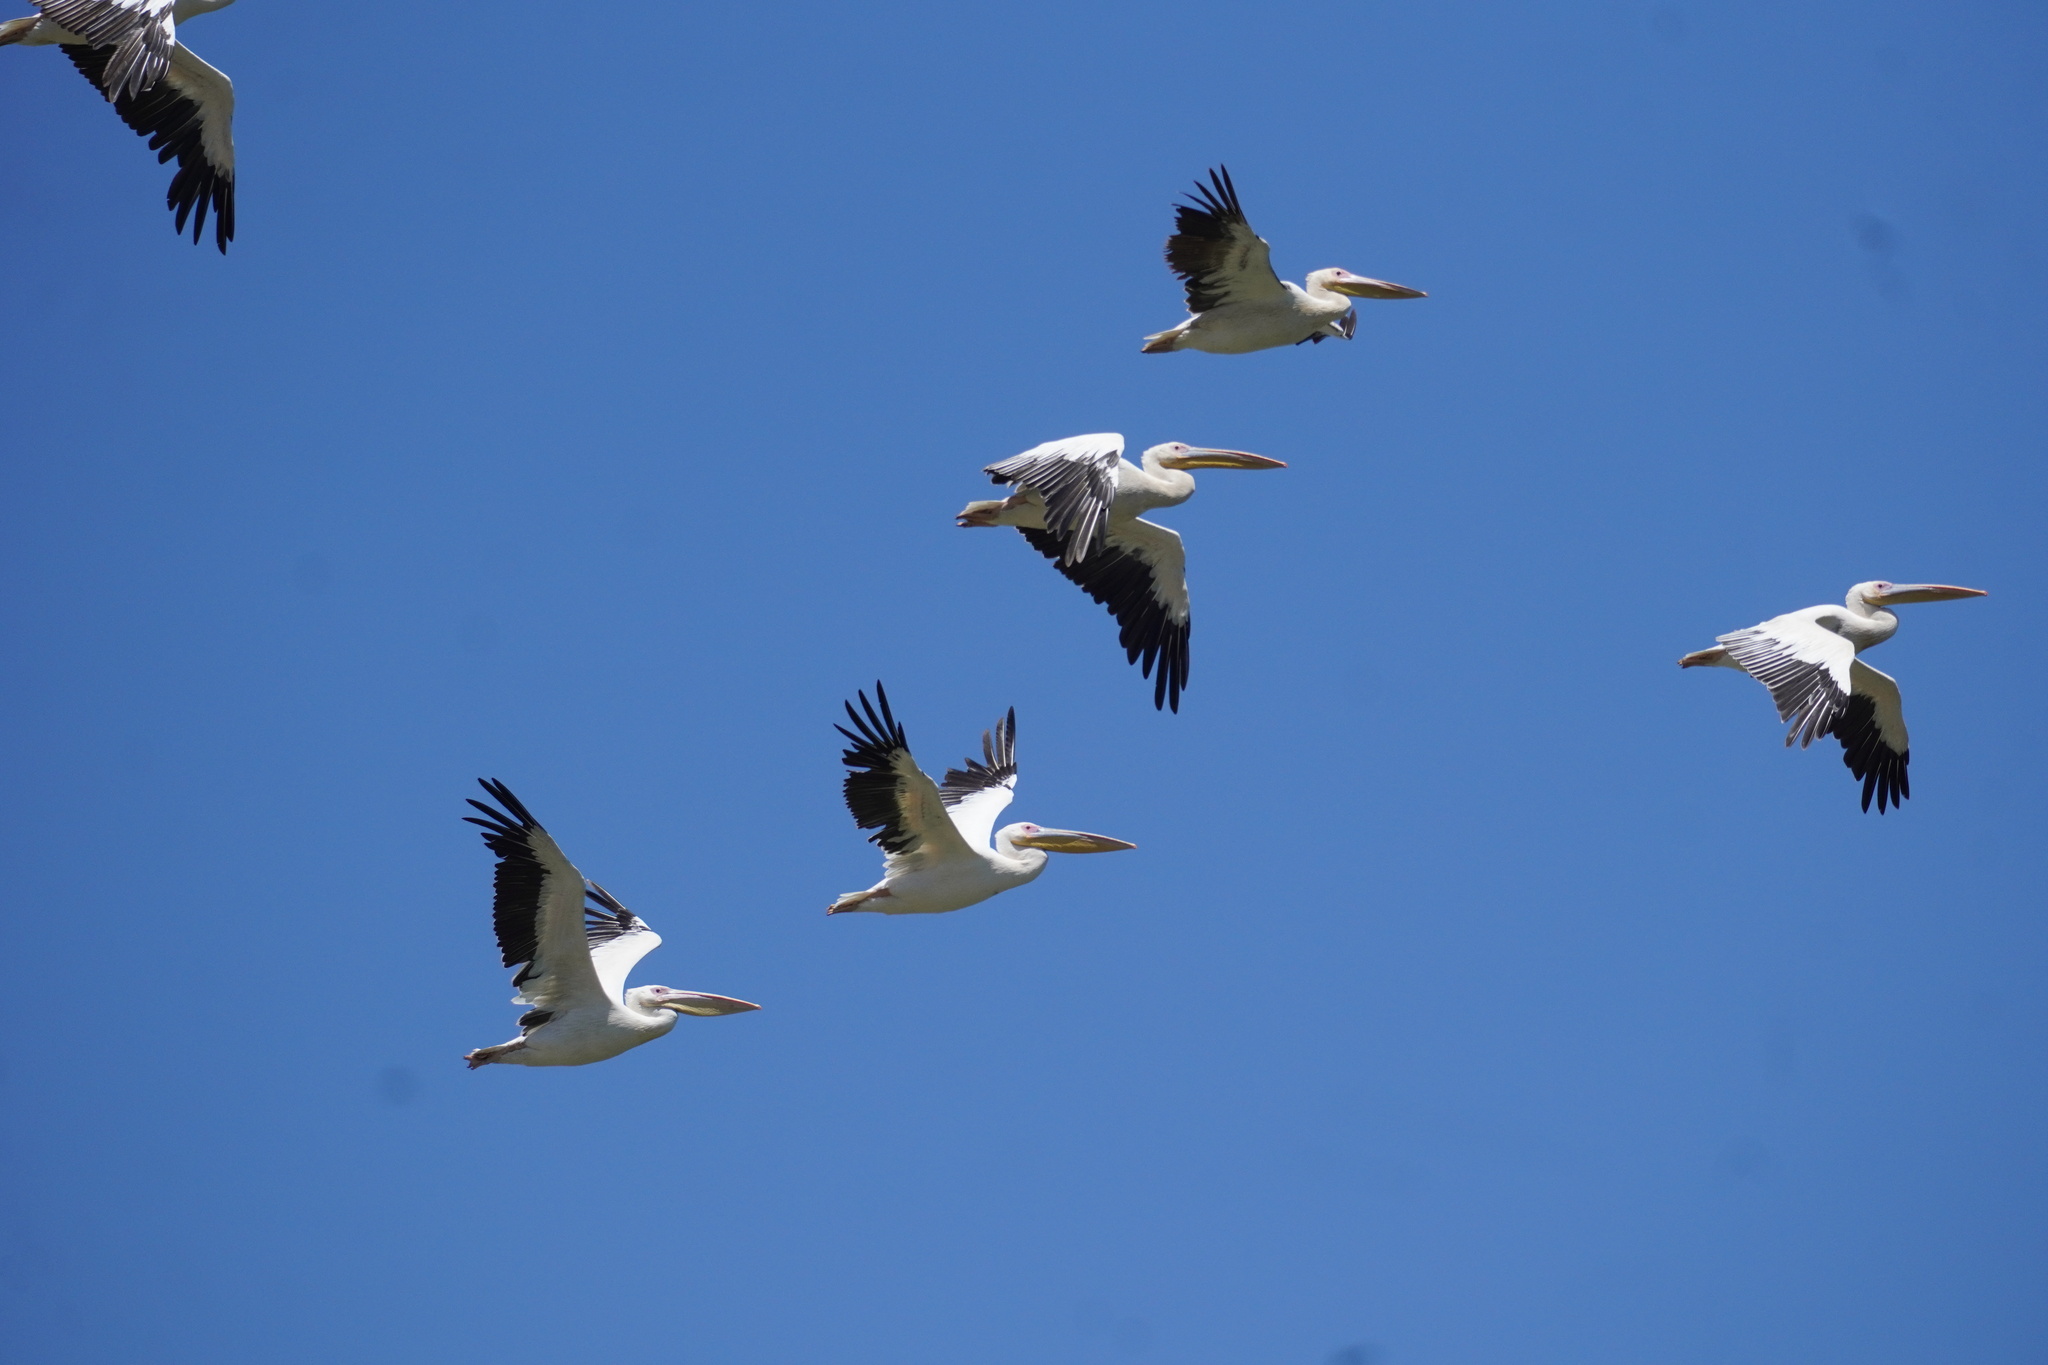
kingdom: Animalia
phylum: Chordata
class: Aves
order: Pelecaniformes
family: Pelecanidae
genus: Pelecanus
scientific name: Pelecanus onocrotalus
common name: Great white pelican
